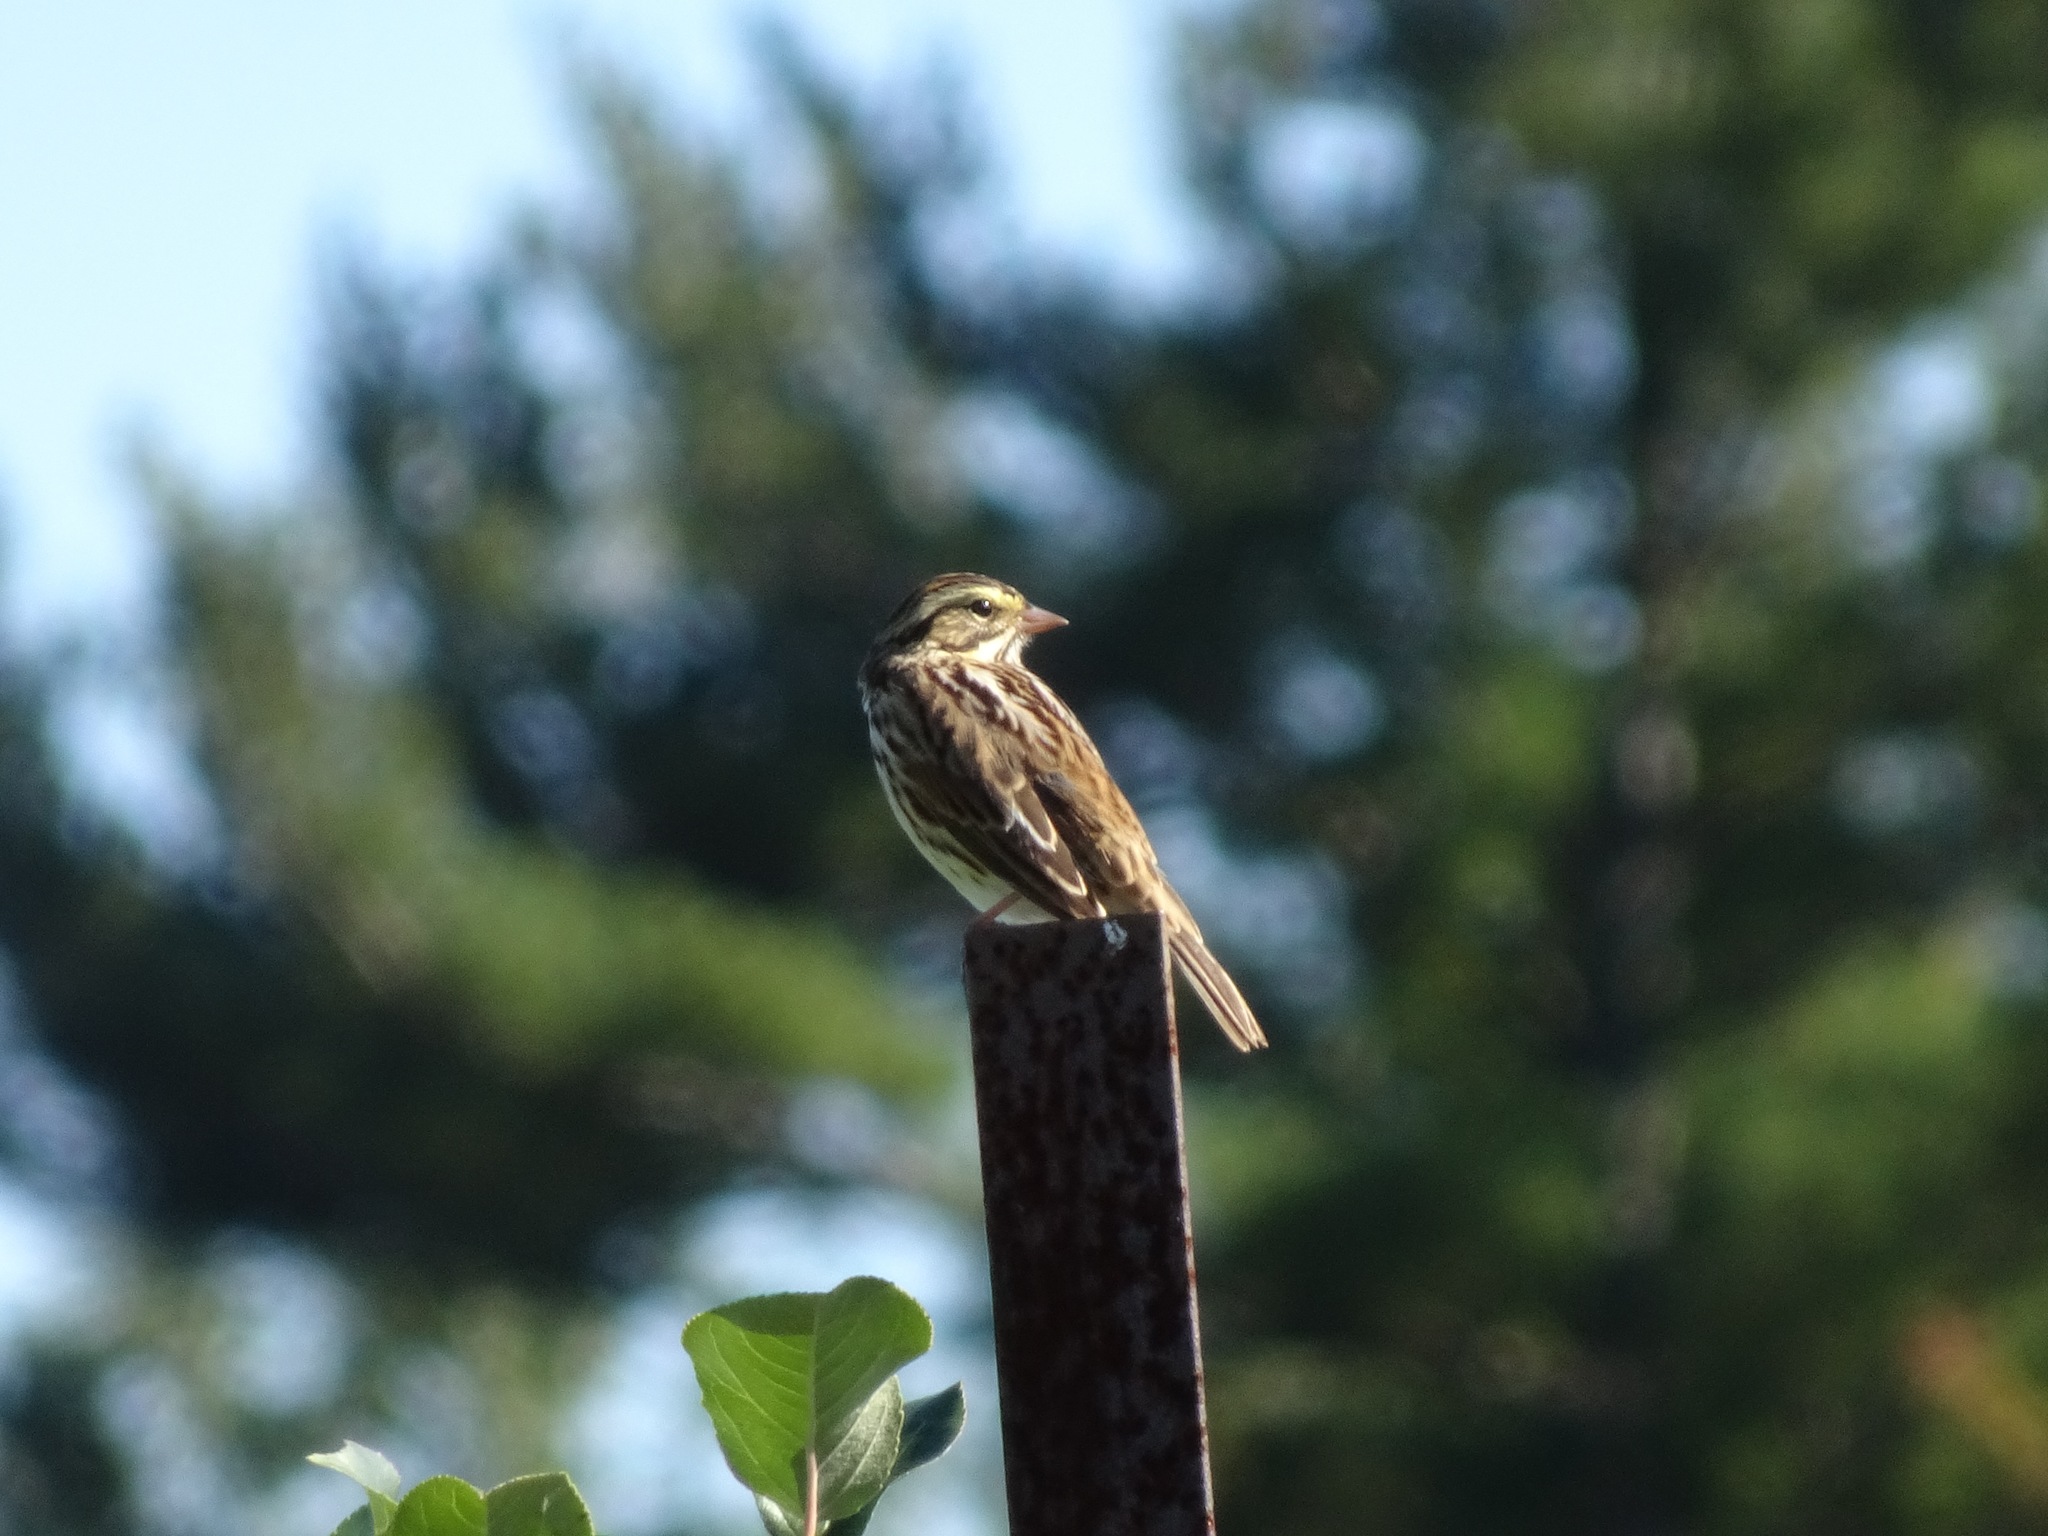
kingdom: Animalia
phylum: Chordata
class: Aves
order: Passeriformes
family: Passerellidae
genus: Passerculus
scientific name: Passerculus sandwichensis
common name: Savannah sparrow
